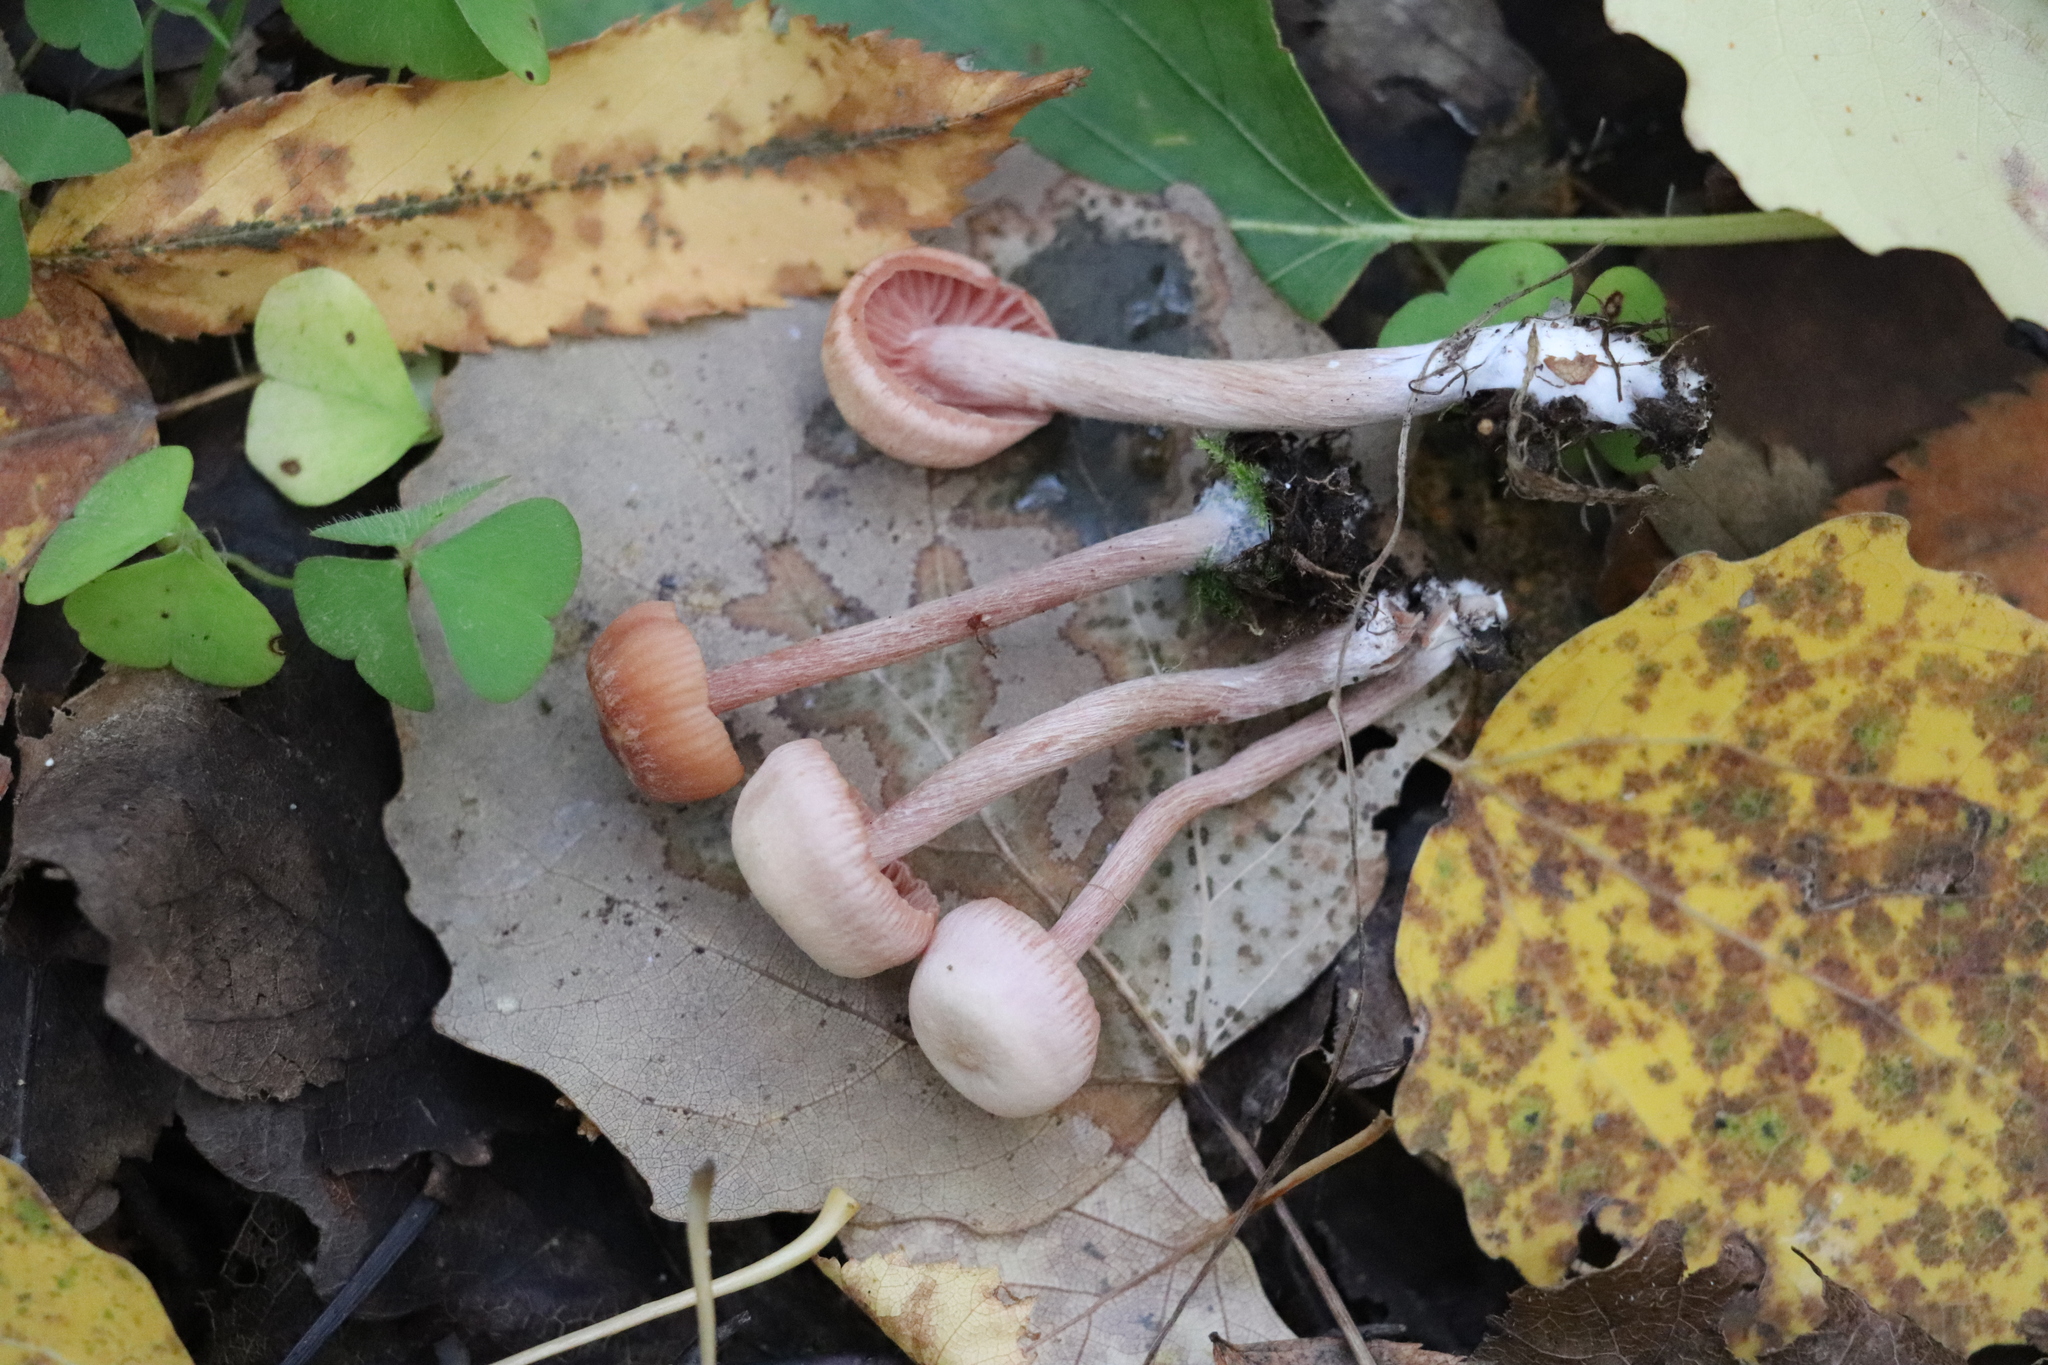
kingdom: Fungi
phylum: Basidiomycota
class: Agaricomycetes
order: Agaricales
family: Hydnangiaceae
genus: Laccaria
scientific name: Laccaria proxima
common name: Scurfy deceiver
